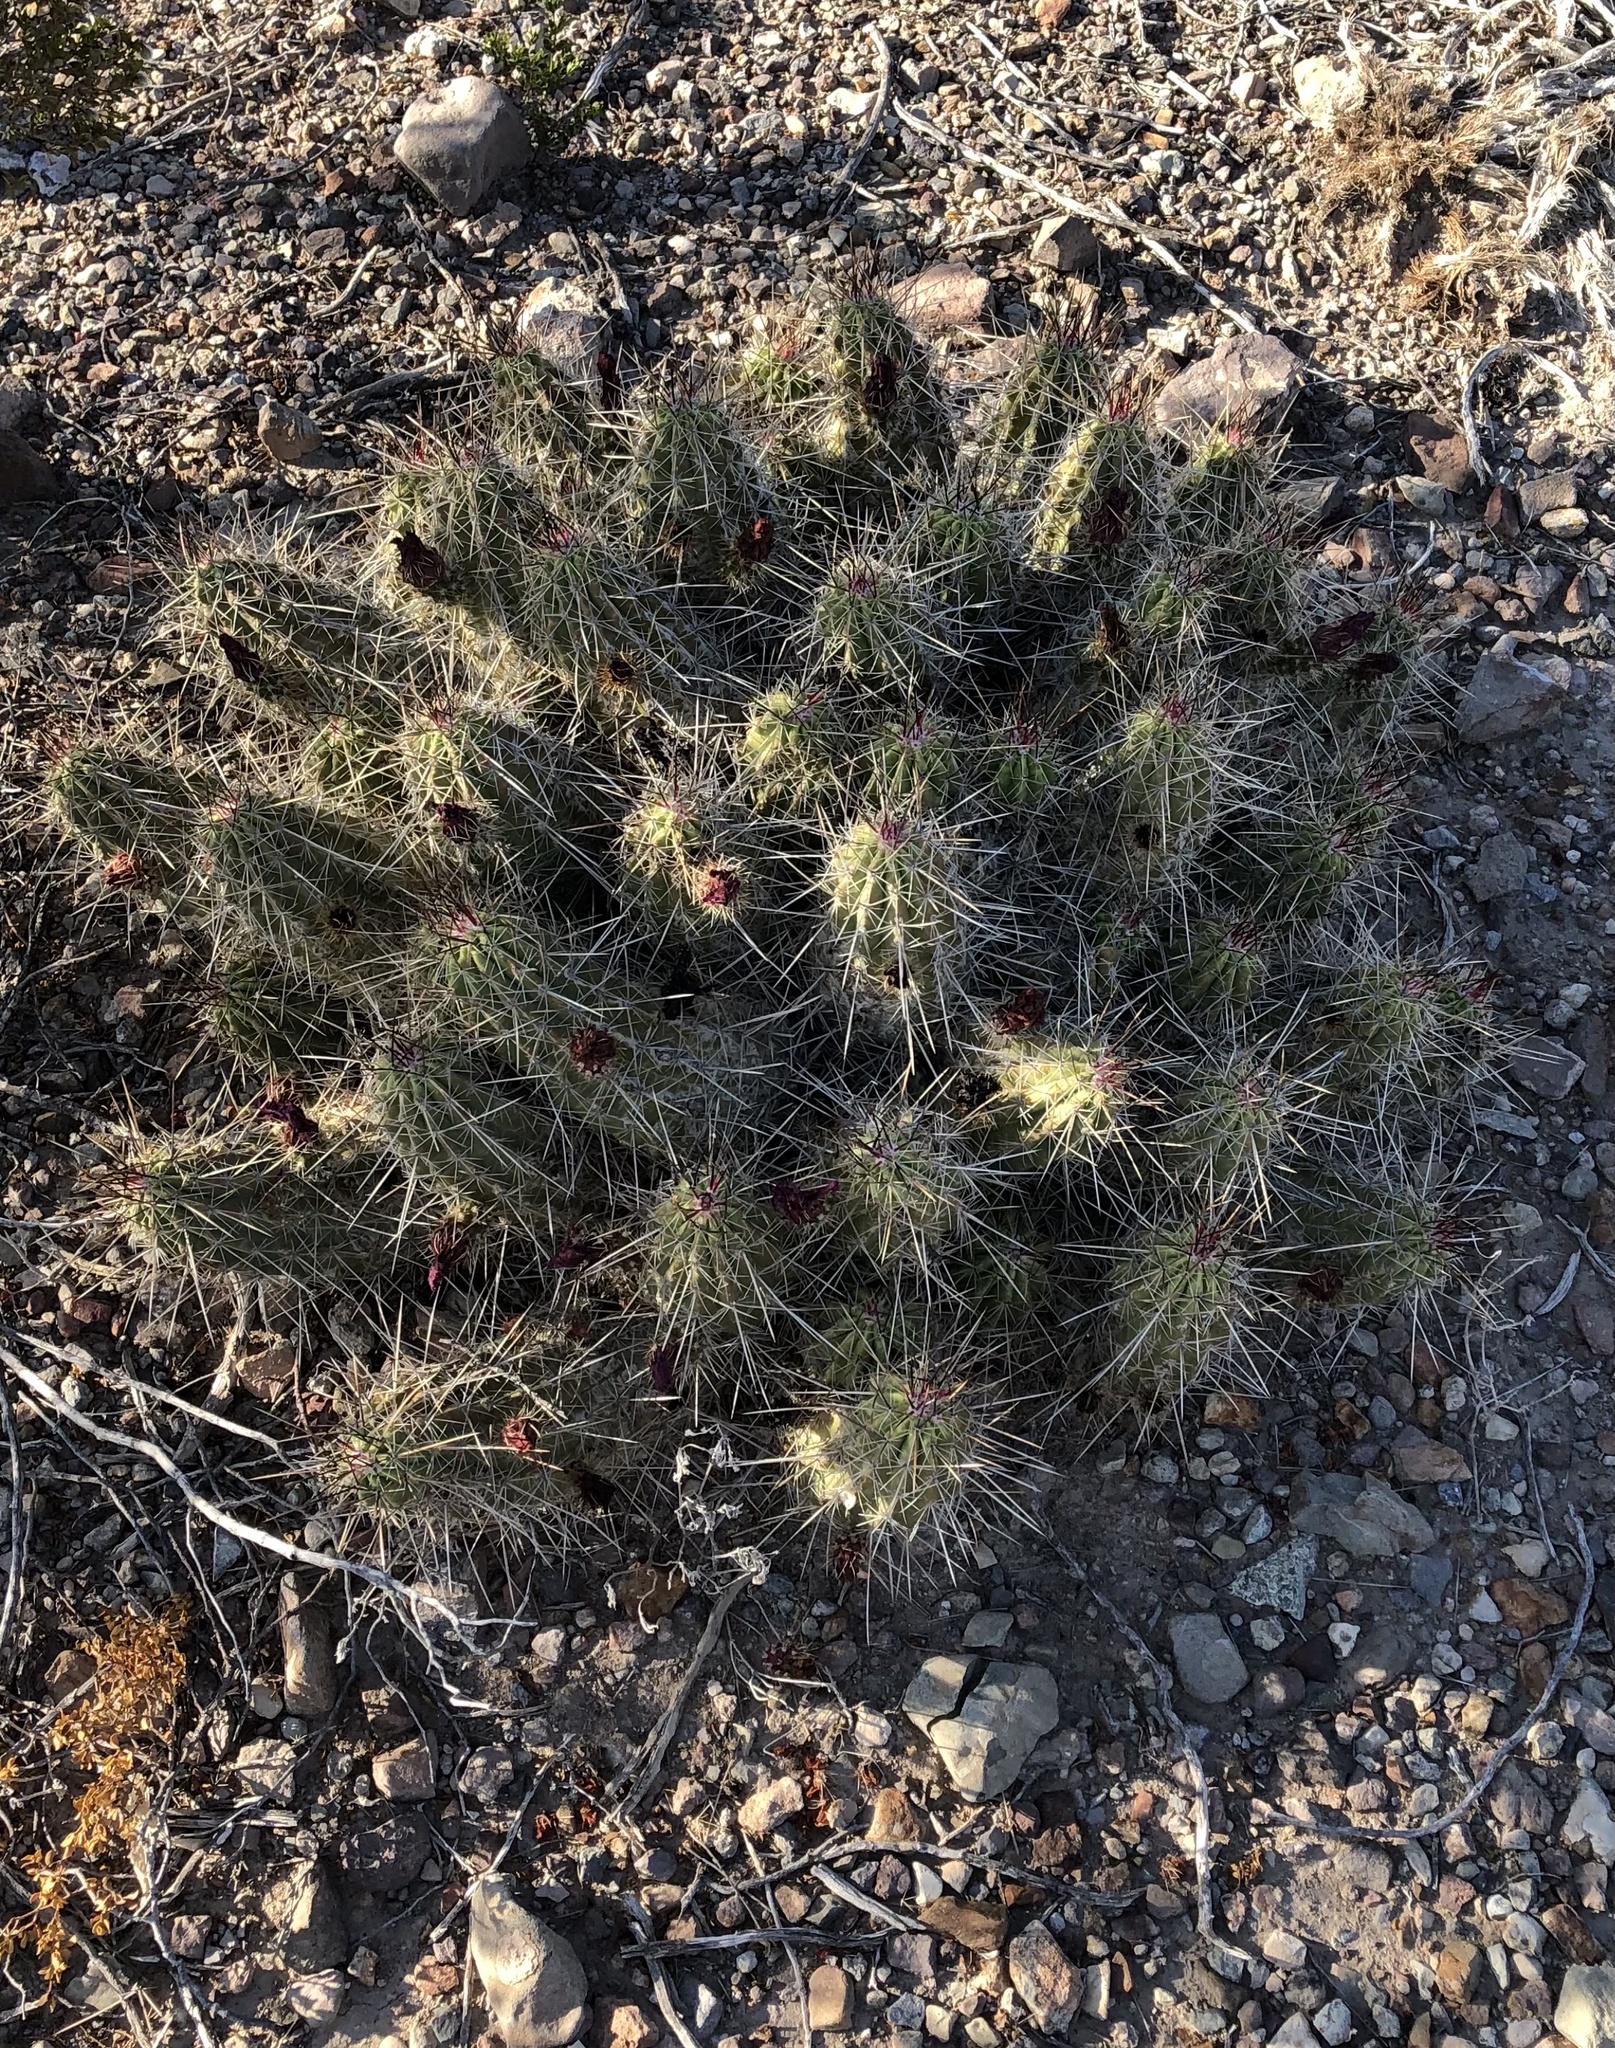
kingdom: Plantae
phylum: Tracheophyta
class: Magnoliopsida
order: Caryophyllales
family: Cactaceae
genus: Echinocereus
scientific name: Echinocereus stramineus
